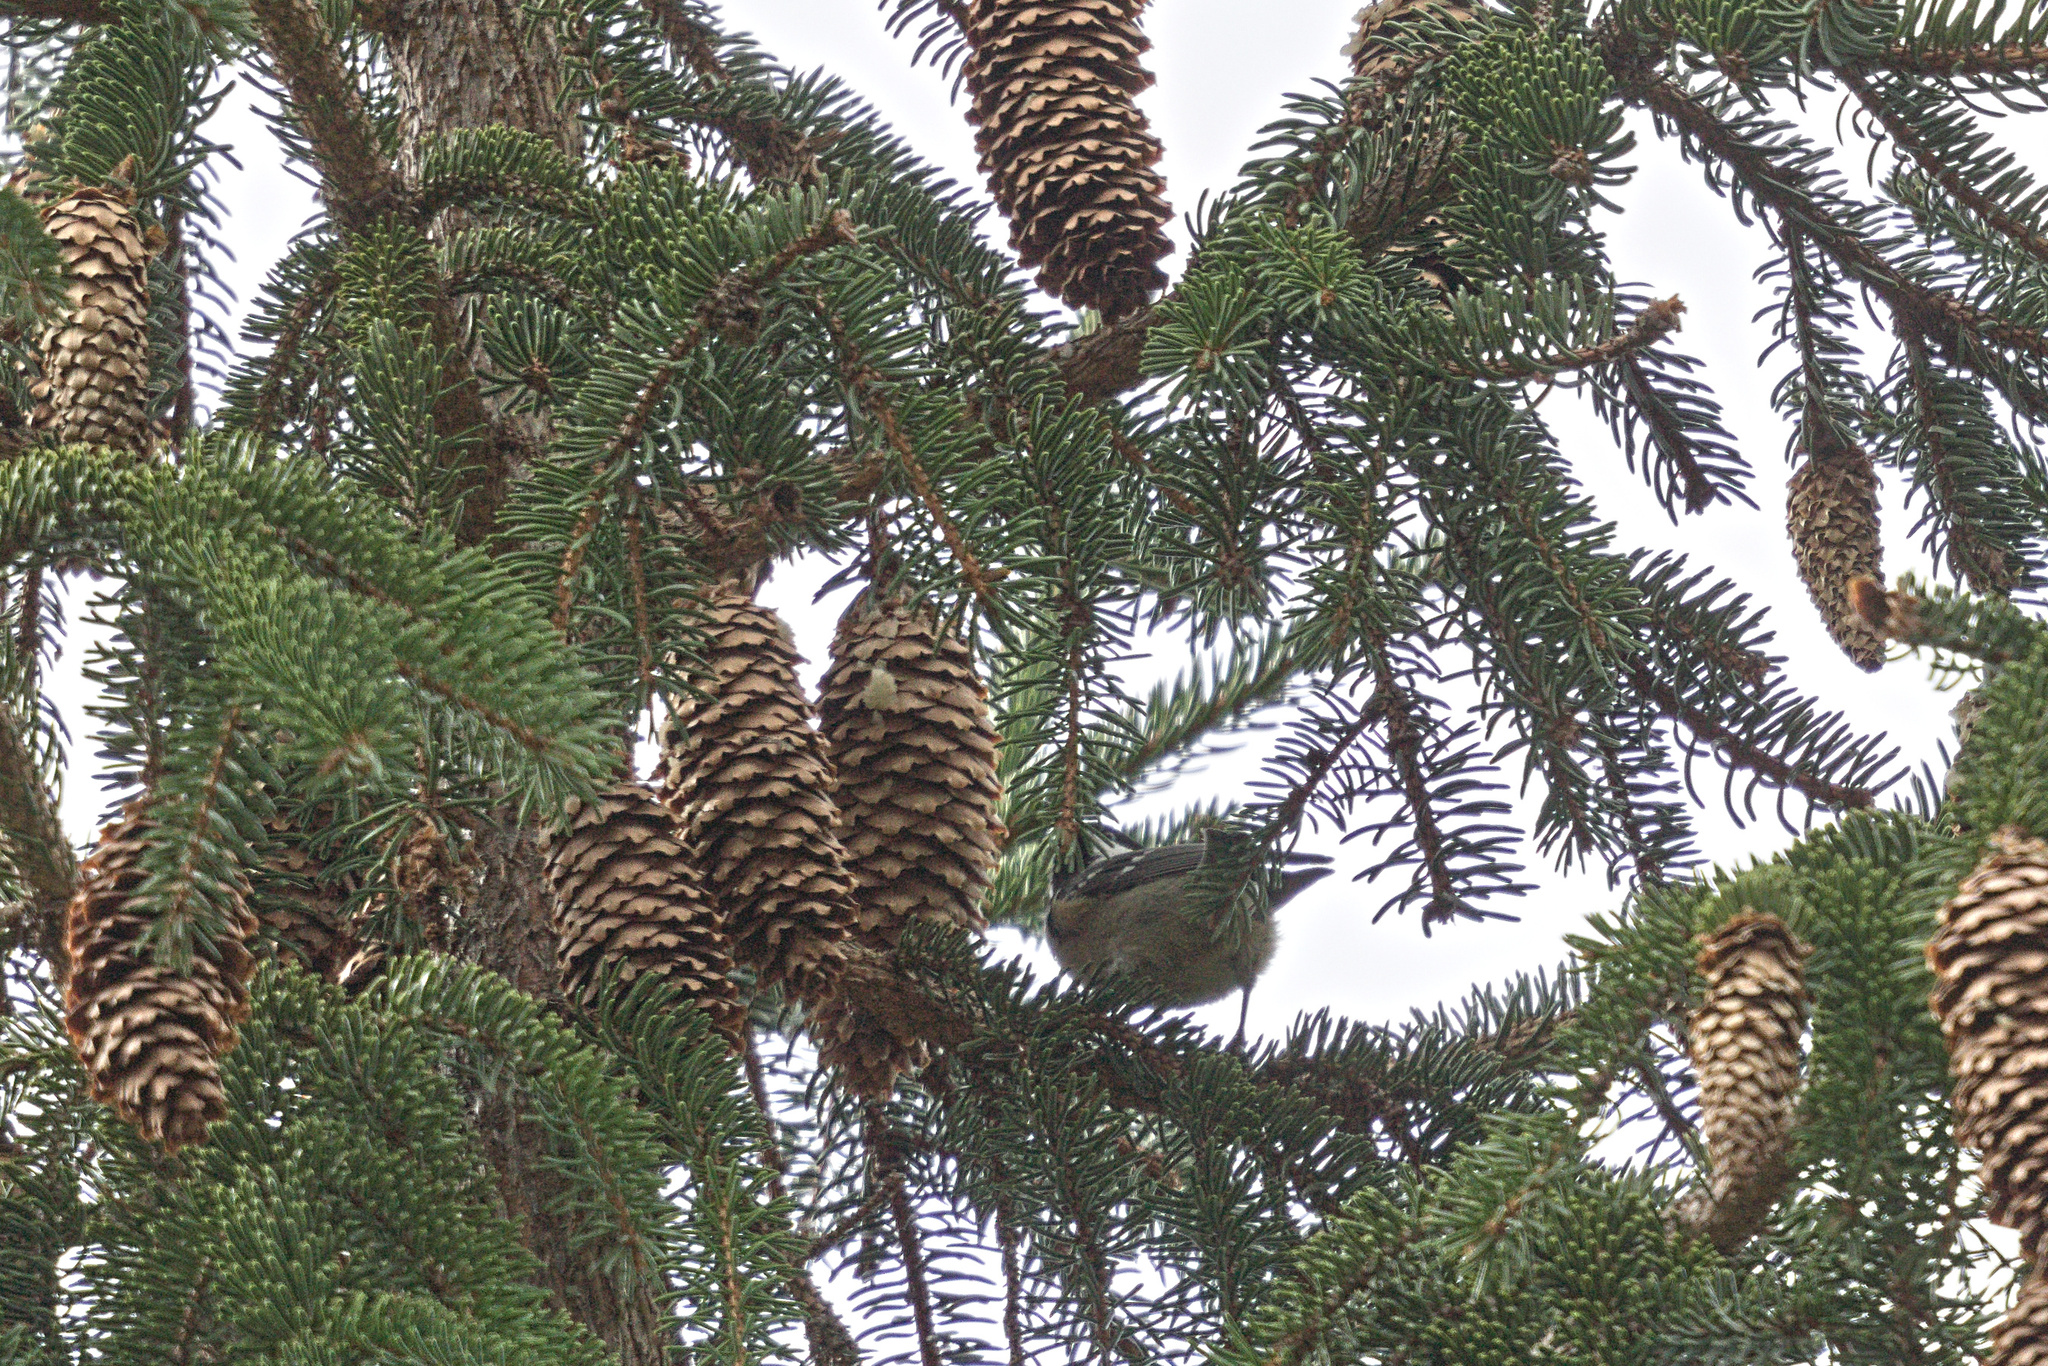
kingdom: Animalia
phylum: Chordata
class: Aves
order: Passeriformes
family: Paridae
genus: Periparus
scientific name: Periparus ater
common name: Coal tit
